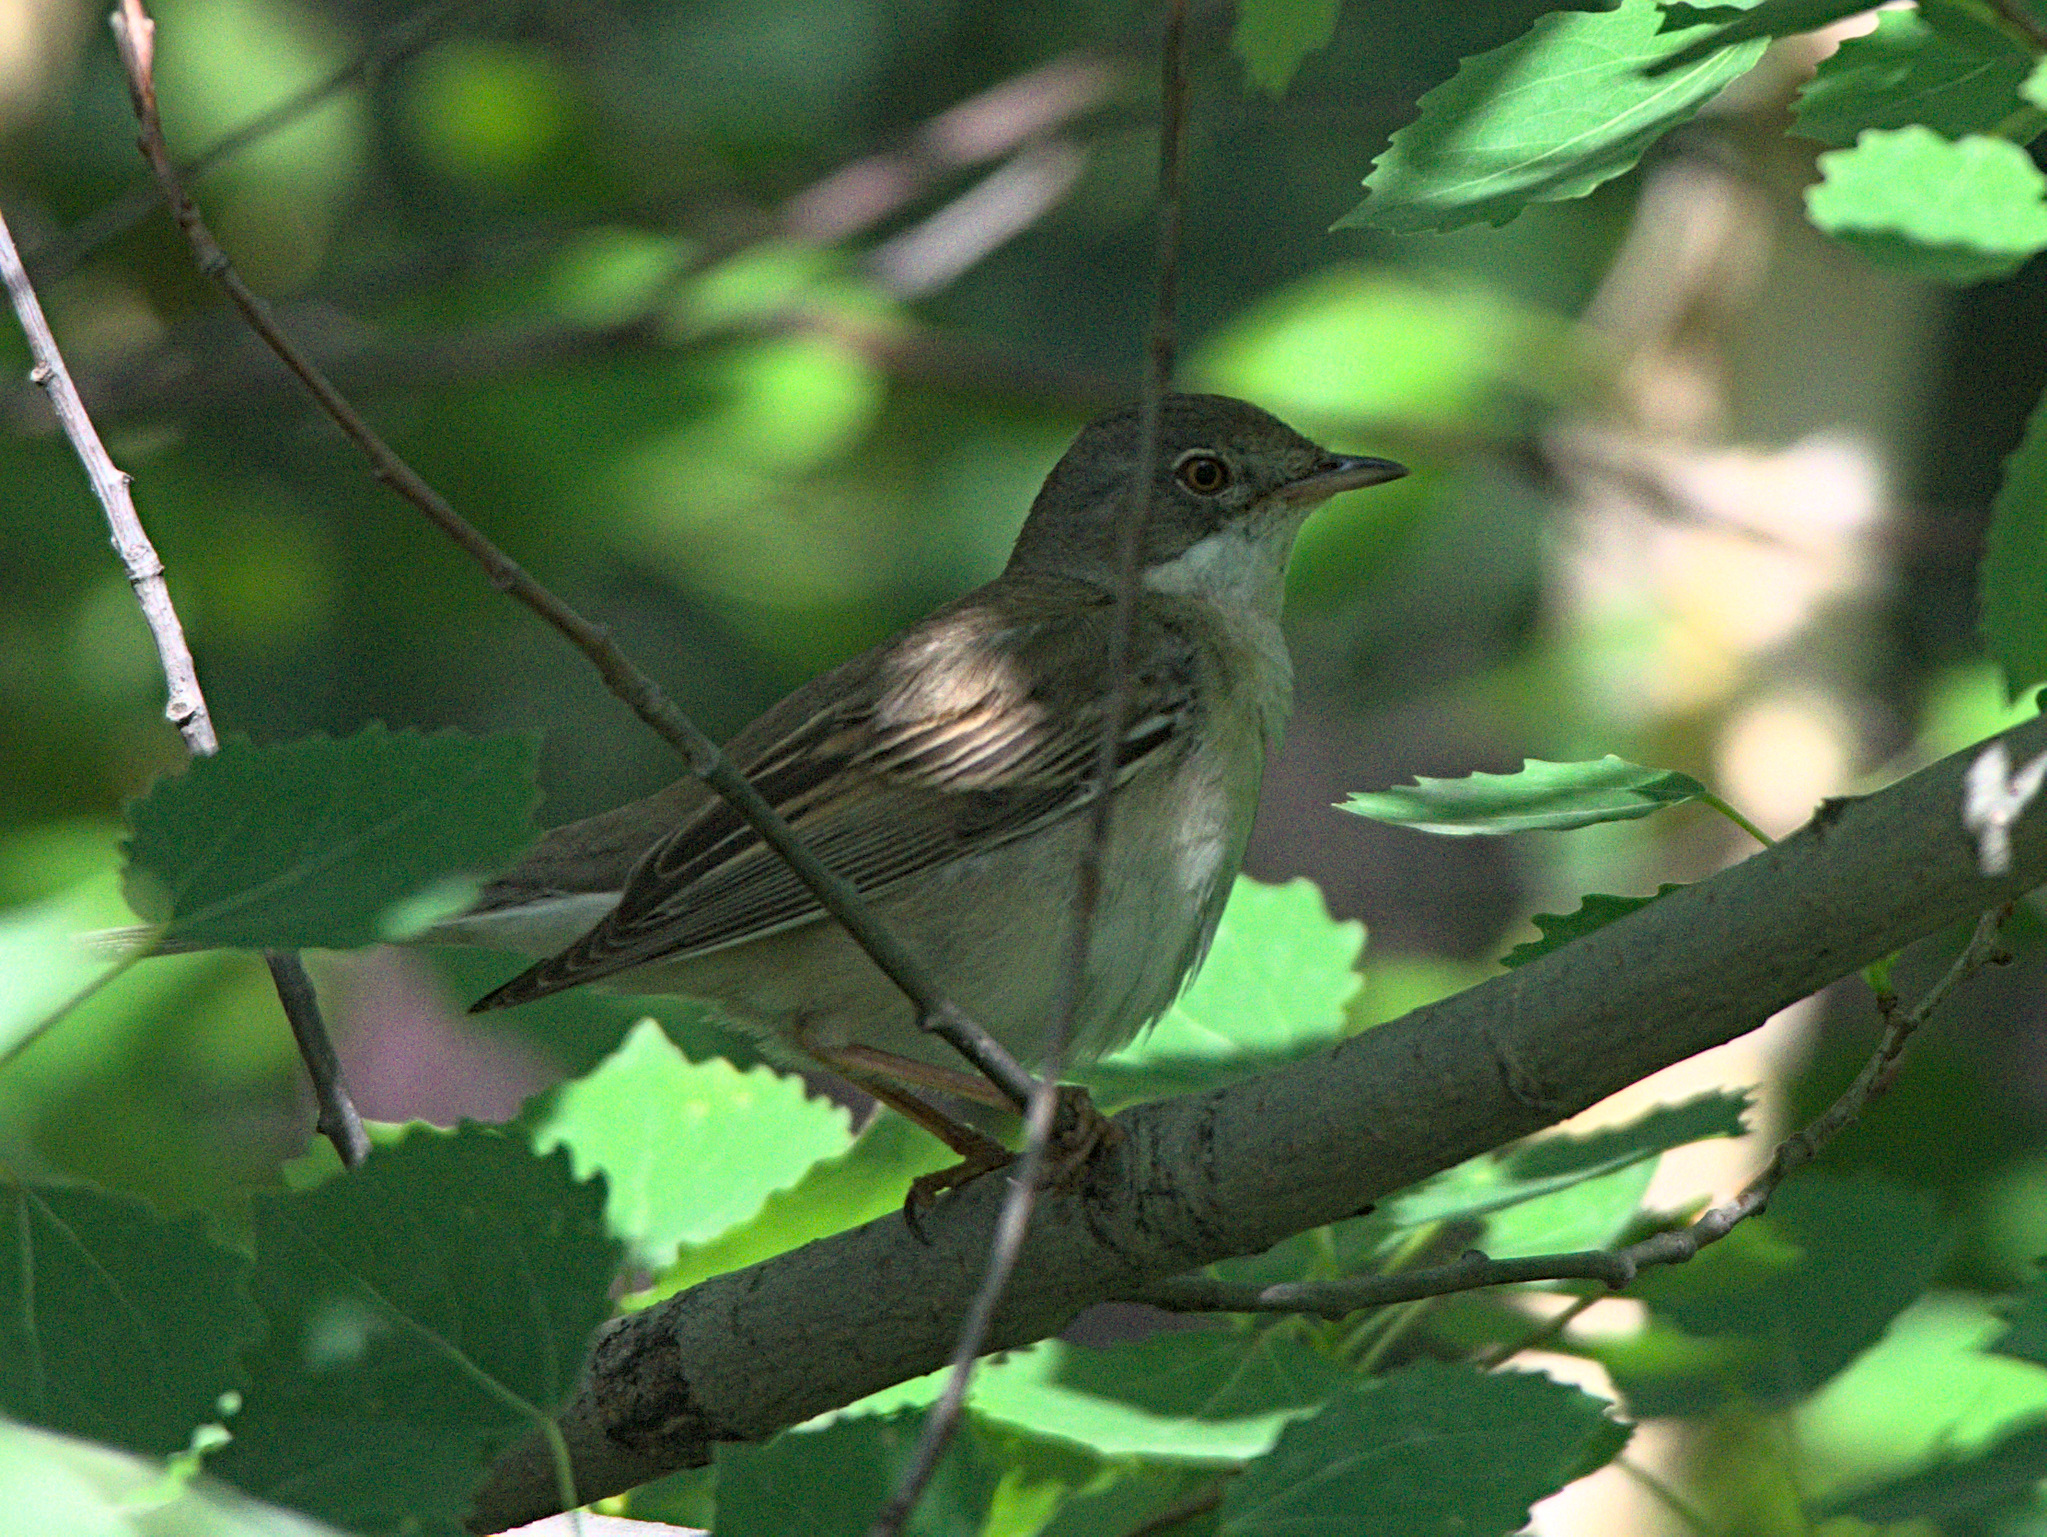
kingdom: Animalia
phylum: Chordata
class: Aves
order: Passeriformes
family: Sylviidae
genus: Sylvia
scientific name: Sylvia communis
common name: Common whitethroat
